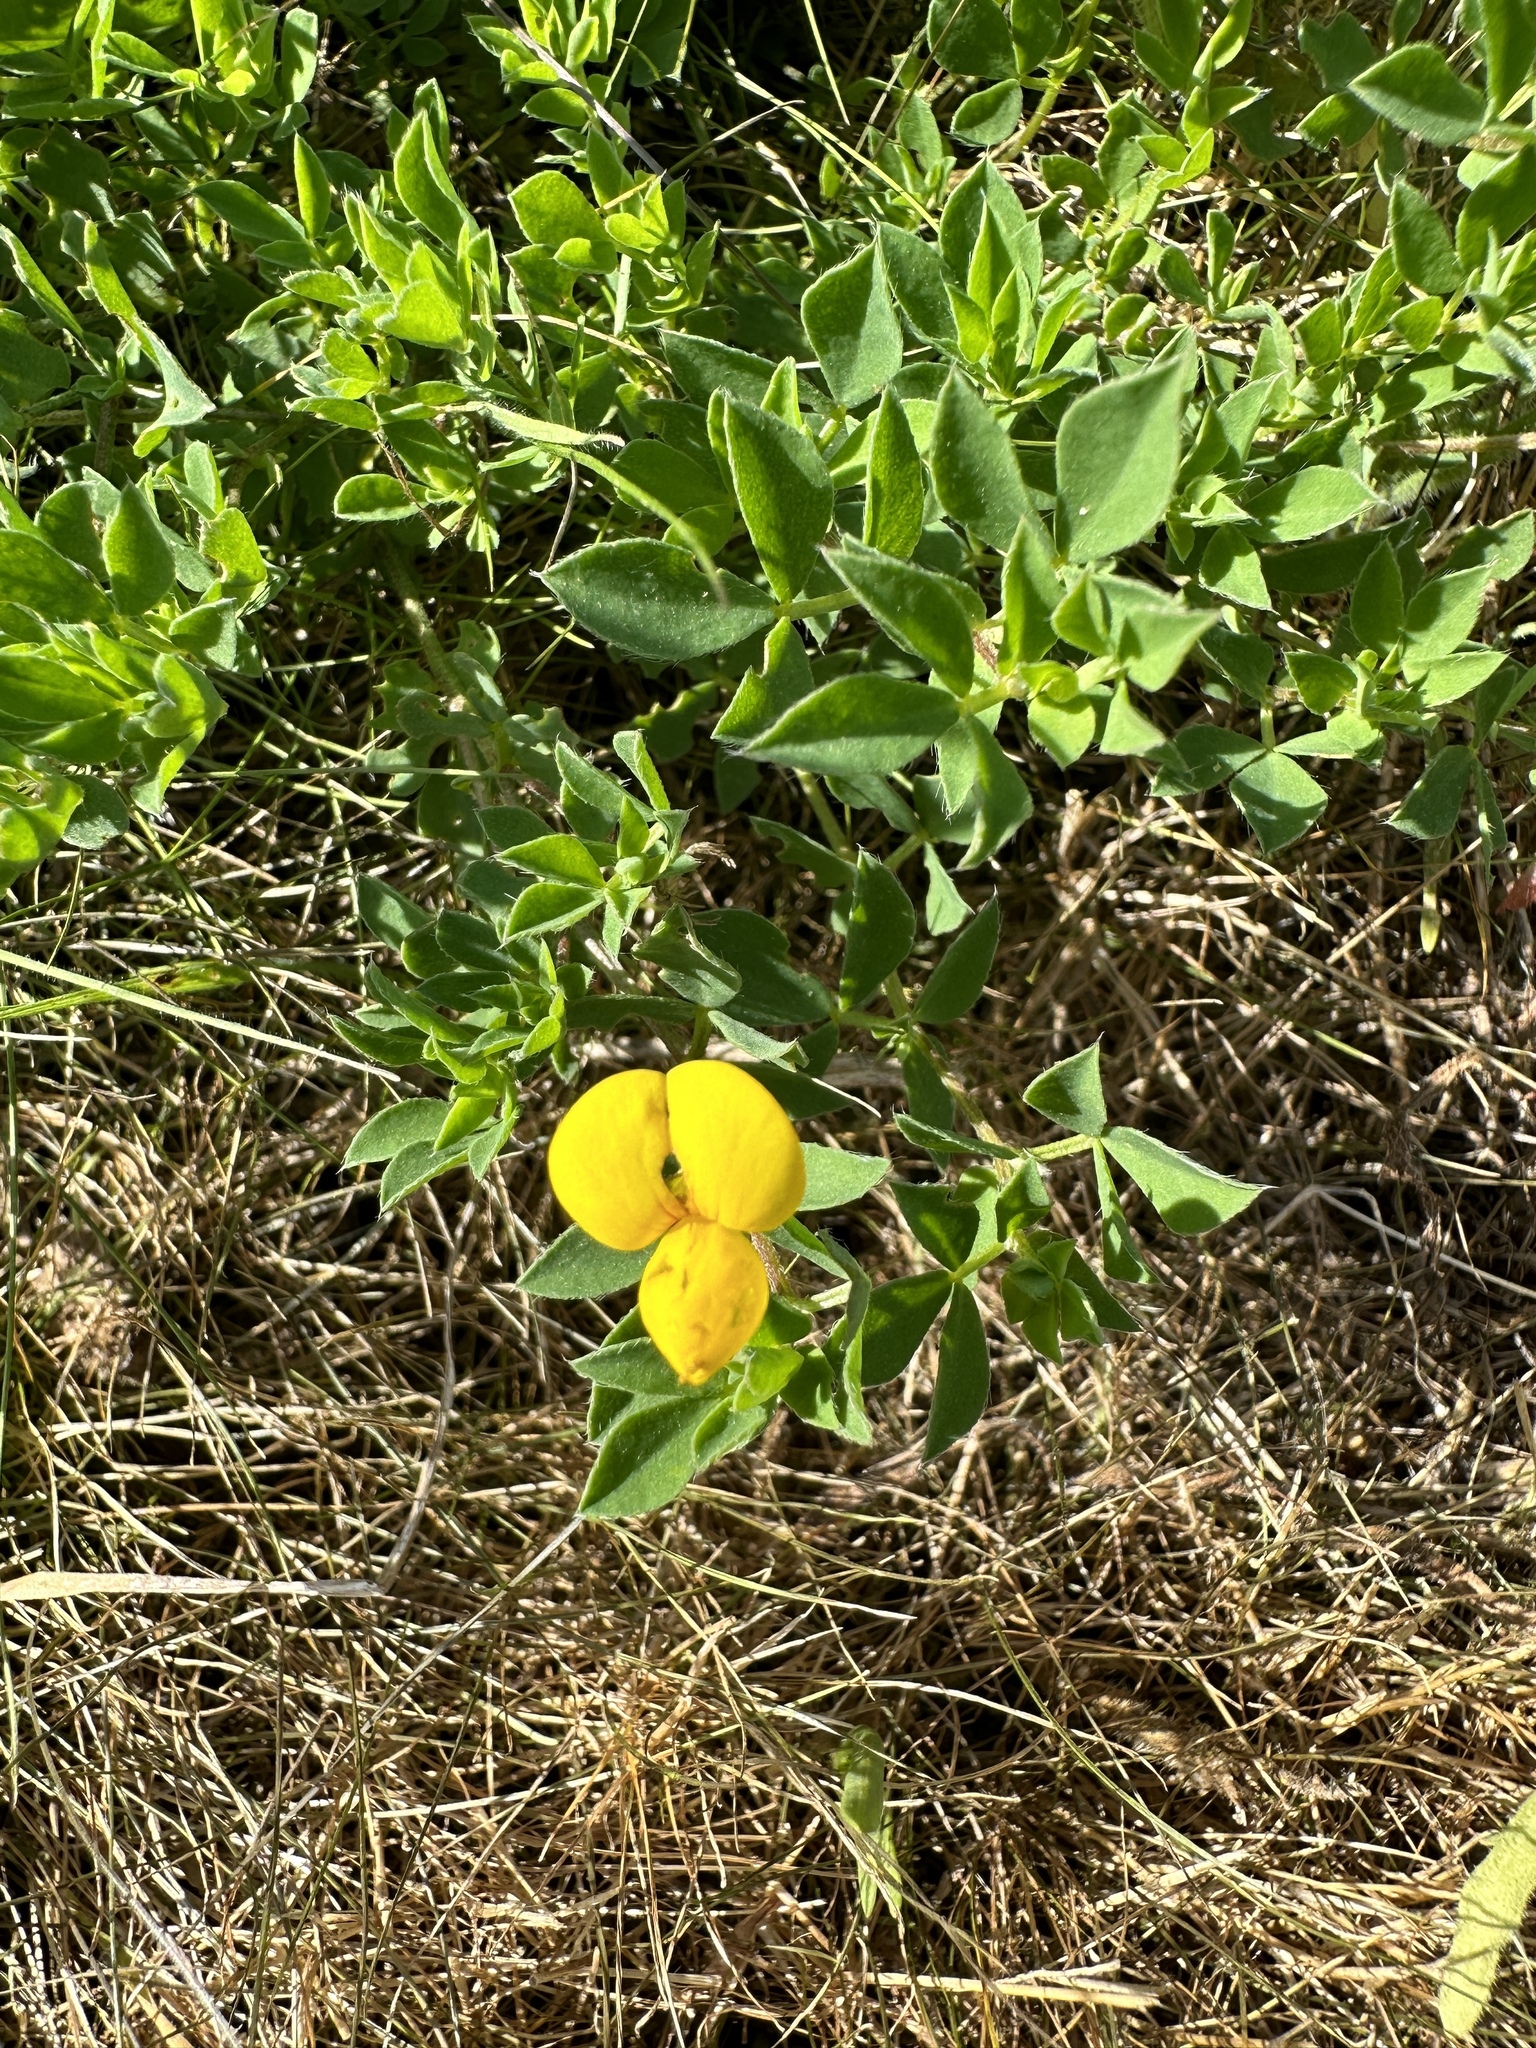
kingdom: Plantae
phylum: Tracheophyta
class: Magnoliopsida
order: Fabales
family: Fabaceae
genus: Lotus
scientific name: Lotus corniculatus
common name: Common bird's-foot-trefoil
